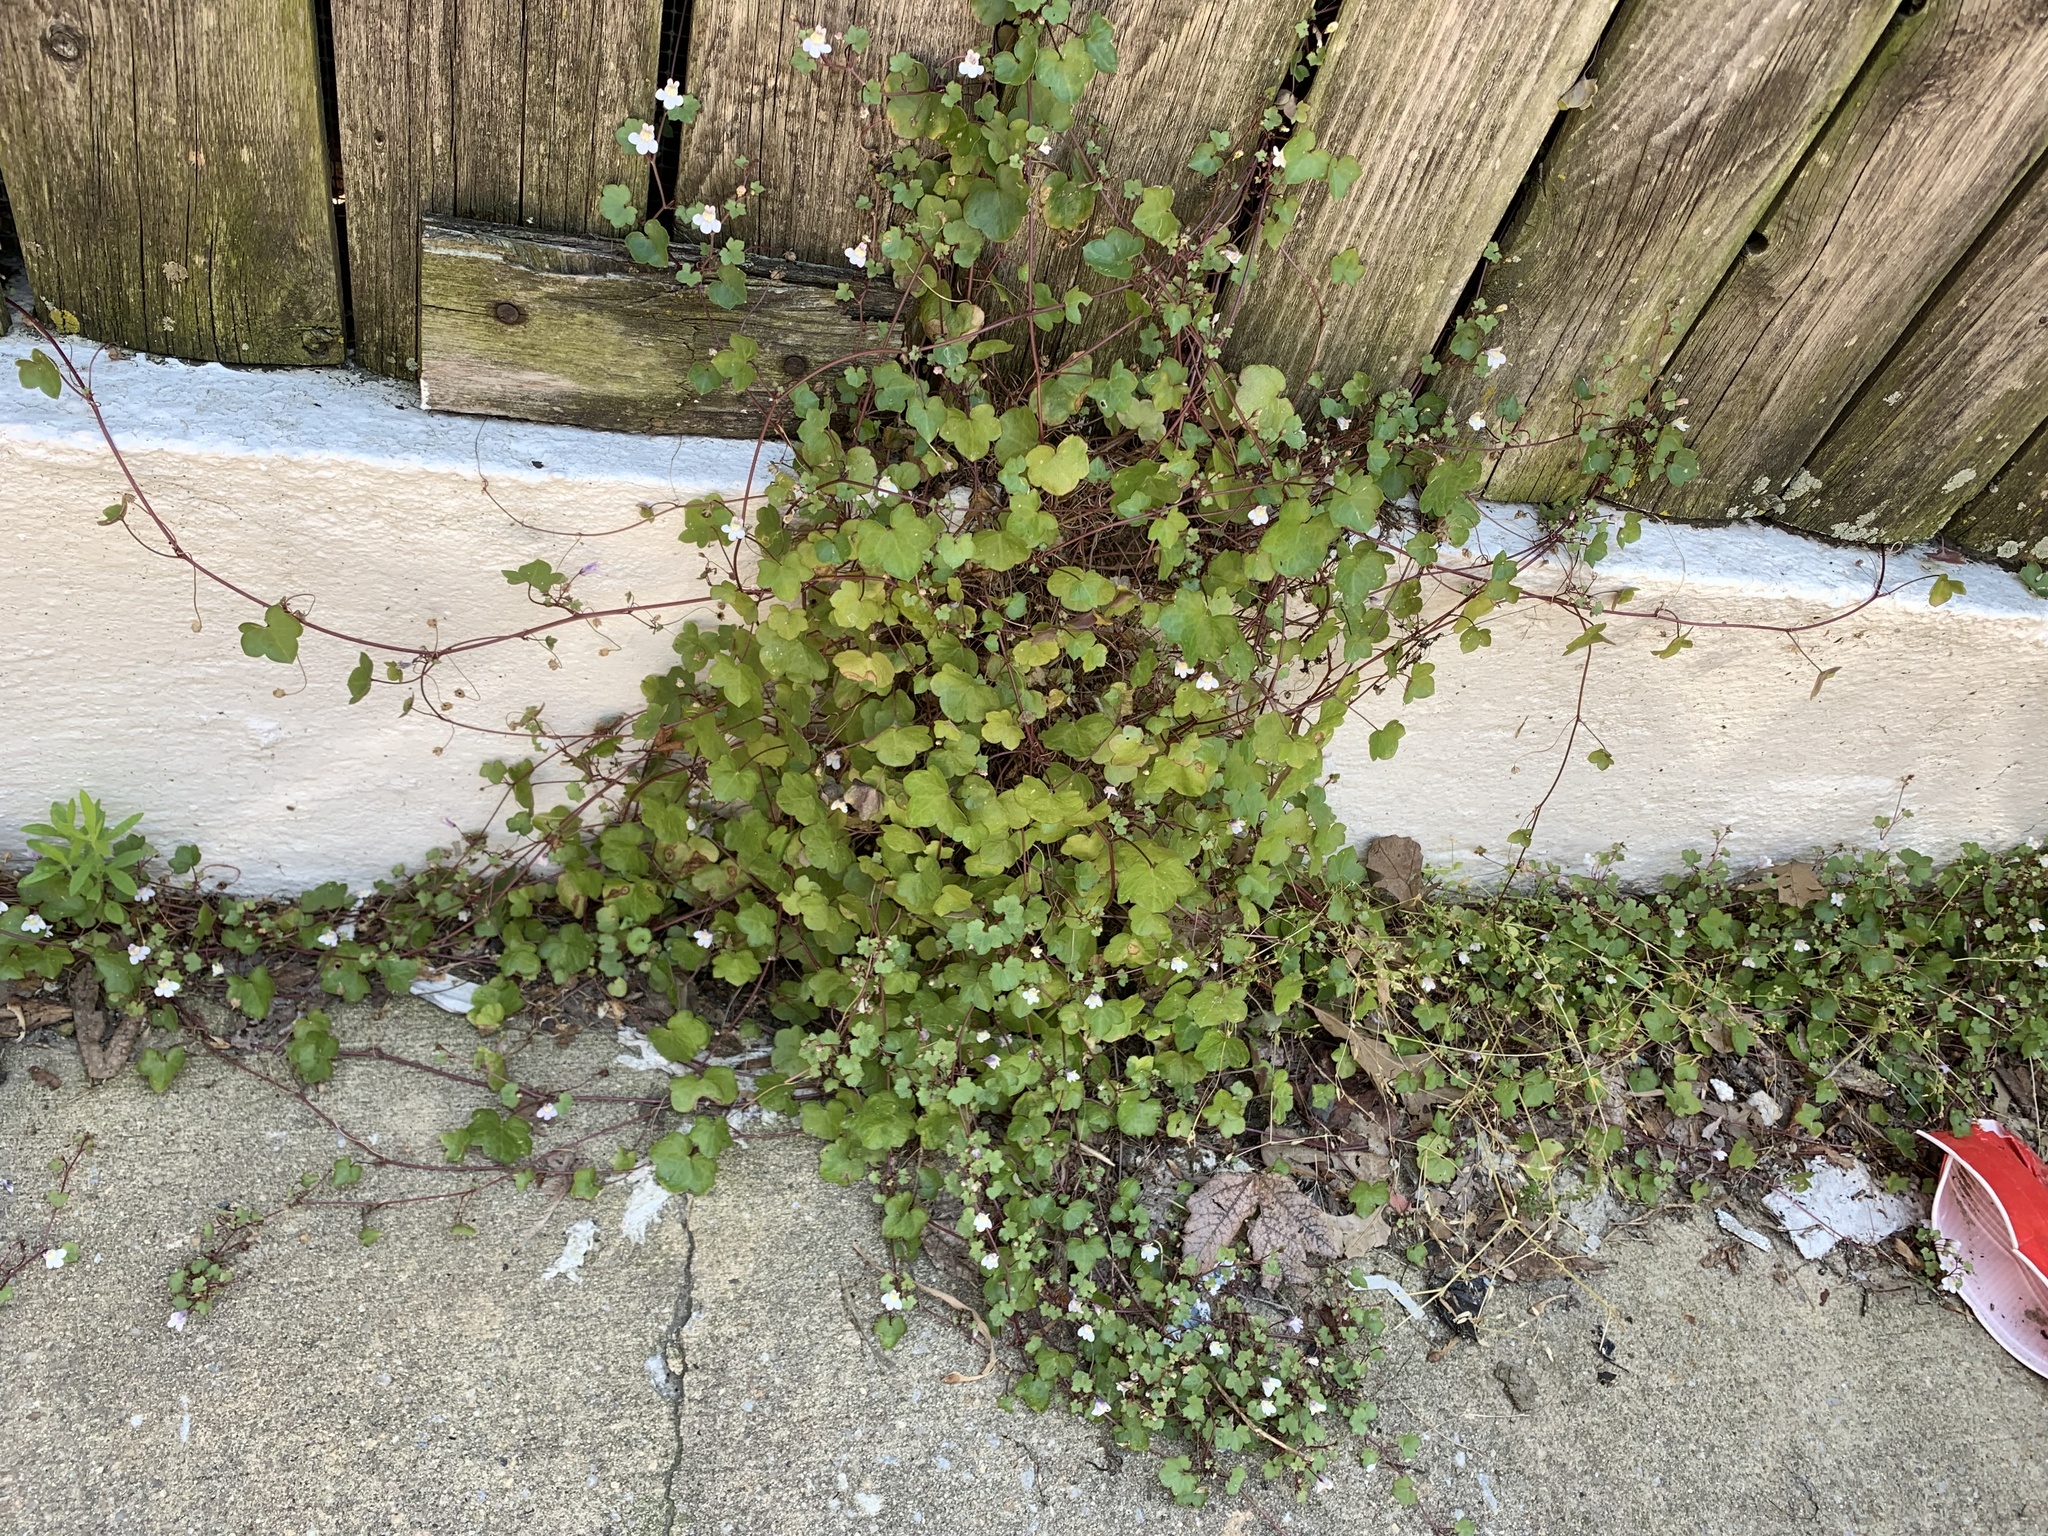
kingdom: Plantae
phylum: Tracheophyta
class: Magnoliopsida
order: Lamiales
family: Plantaginaceae
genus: Cymbalaria
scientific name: Cymbalaria muralis
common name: Ivy-leaved toadflax
